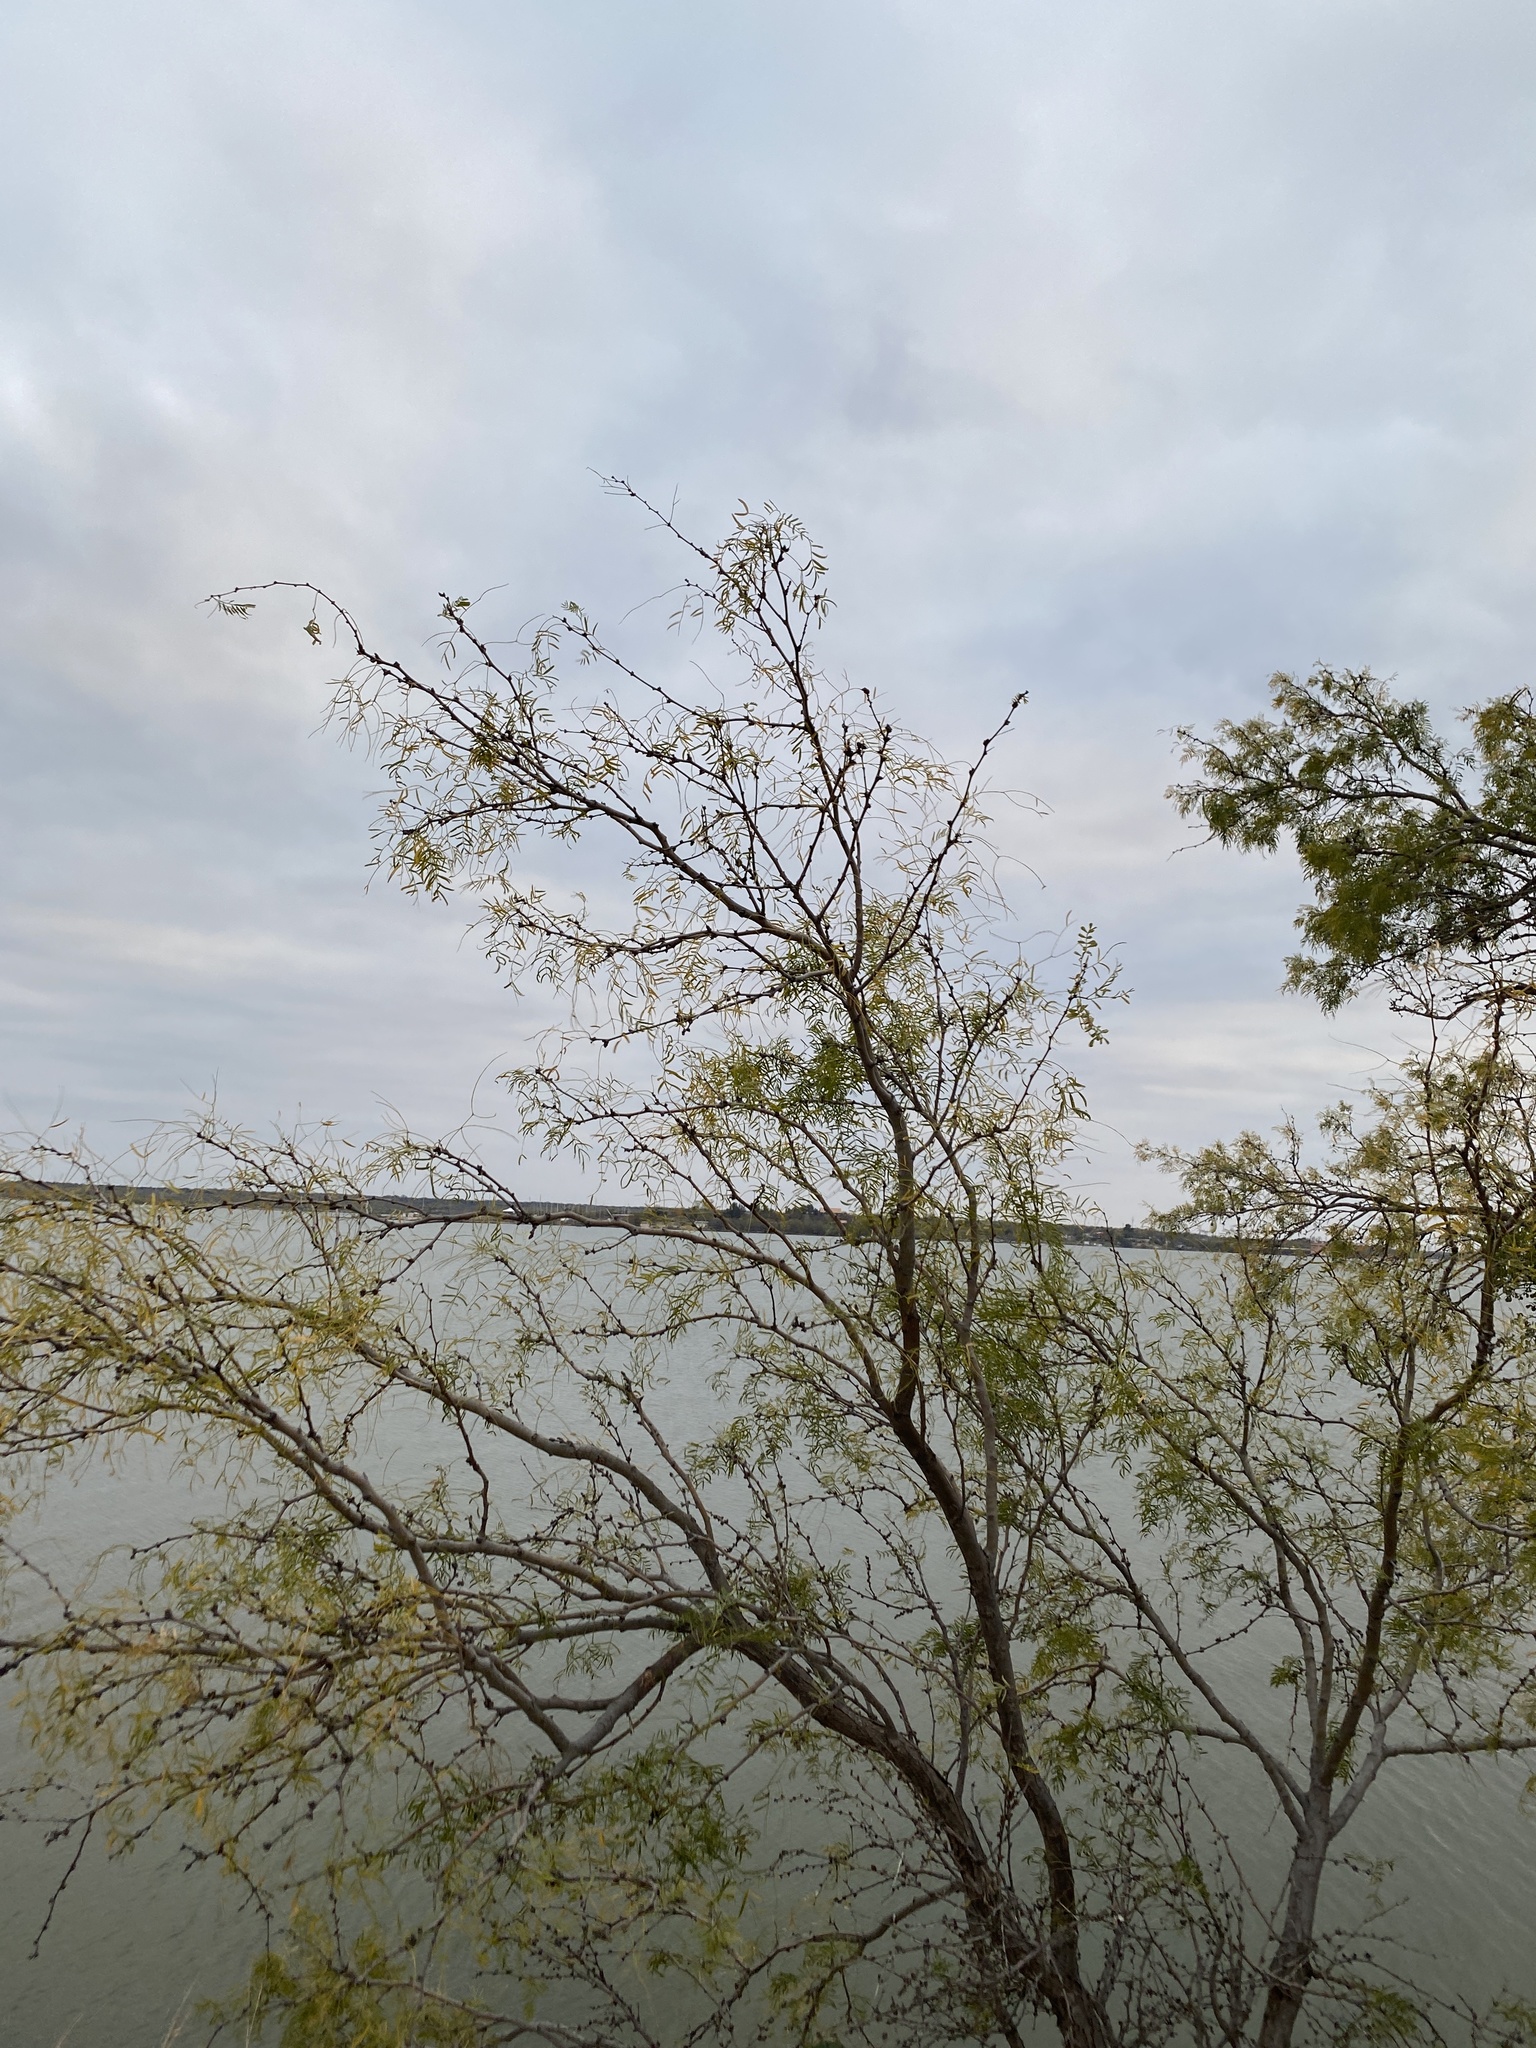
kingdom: Plantae
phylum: Tracheophyta
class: Magnoliopsida
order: Fabales
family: Fabaceae
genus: Prosopis
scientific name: Prosopis glandulosa
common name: Honey mesquite
